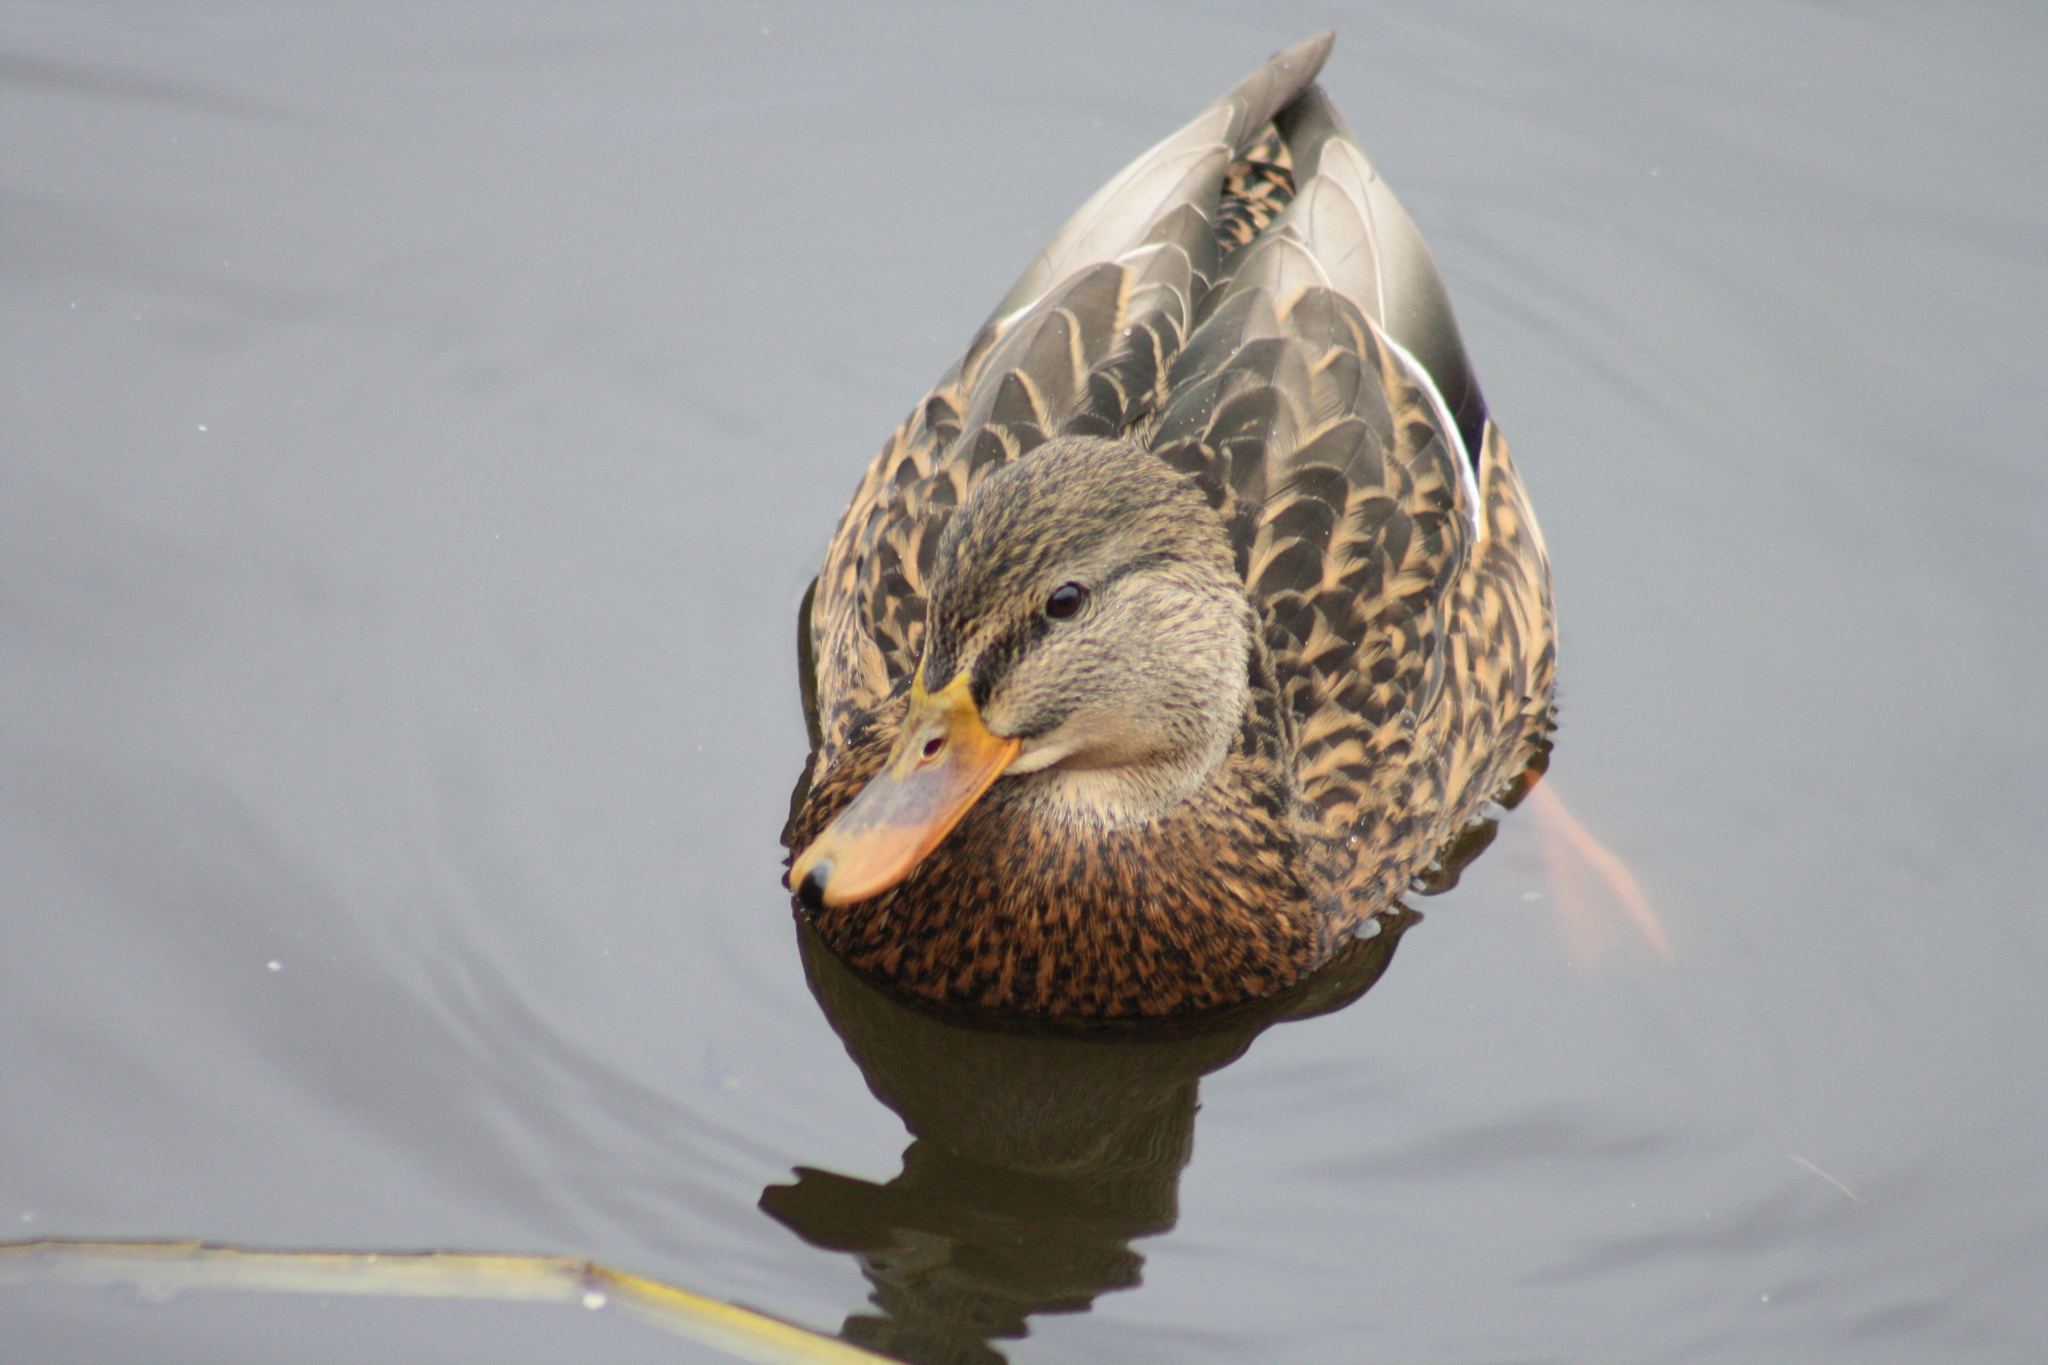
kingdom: Animalia
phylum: Chordata
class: Aves
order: Anseriformes
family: Anatidae
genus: Anas
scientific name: Anas platyrhynchos
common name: Mallard
